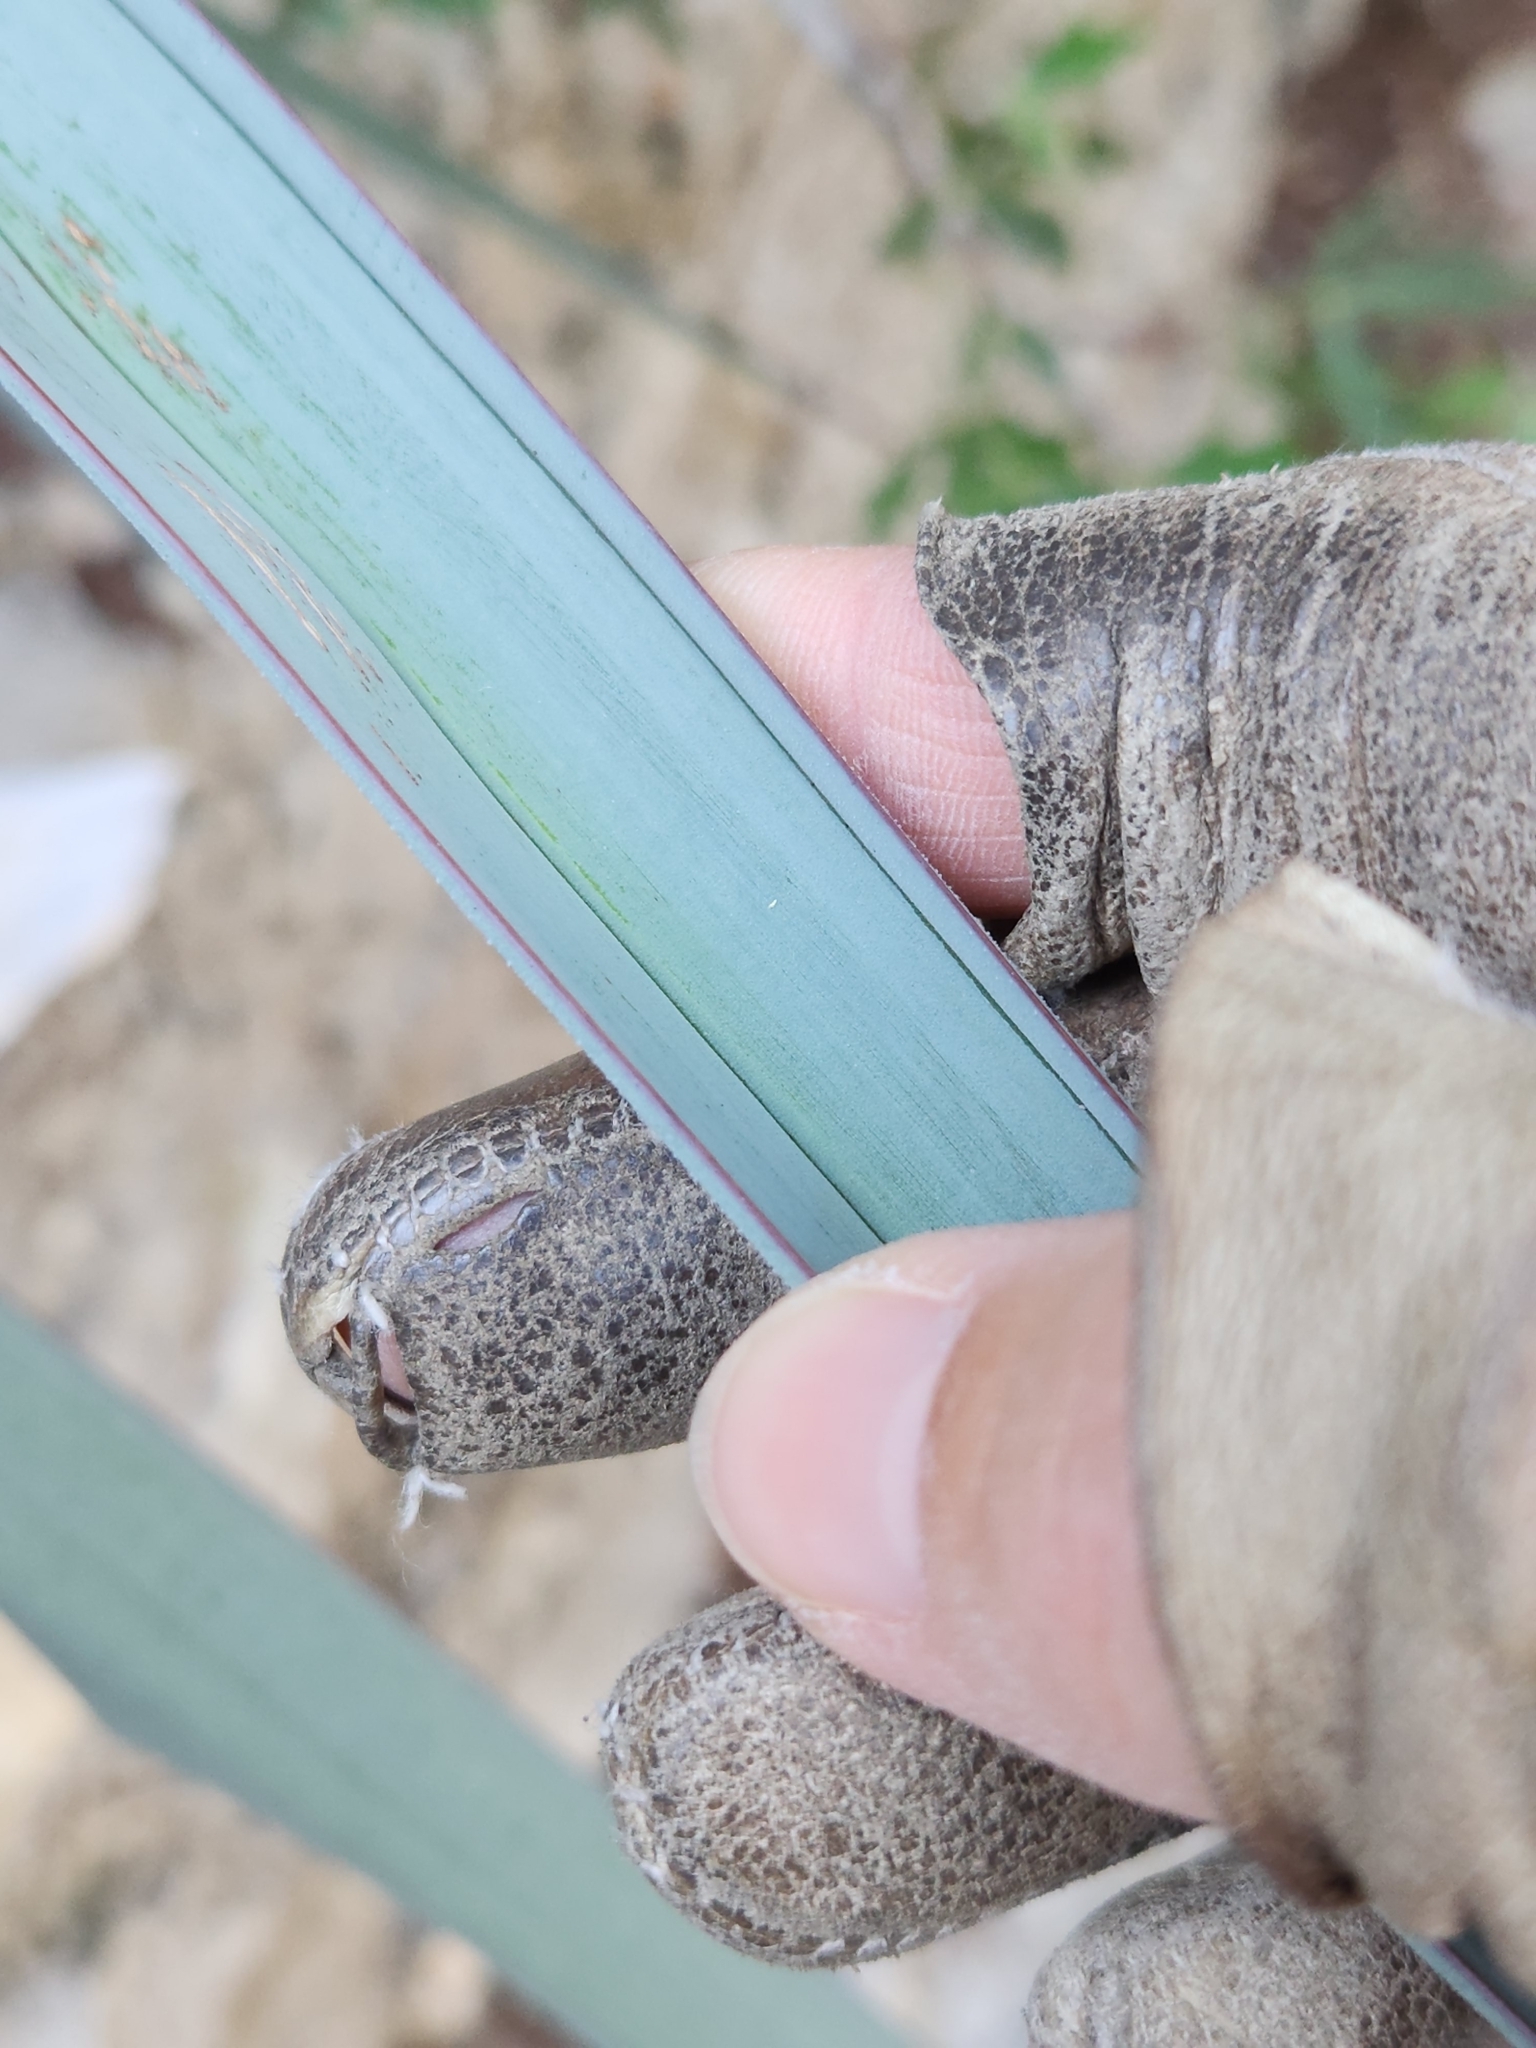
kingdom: Plantae
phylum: Tracheophyta
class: Liliopsida
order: Asparagales
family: Asparagaceae
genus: Yucca
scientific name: Yucca treculiana
